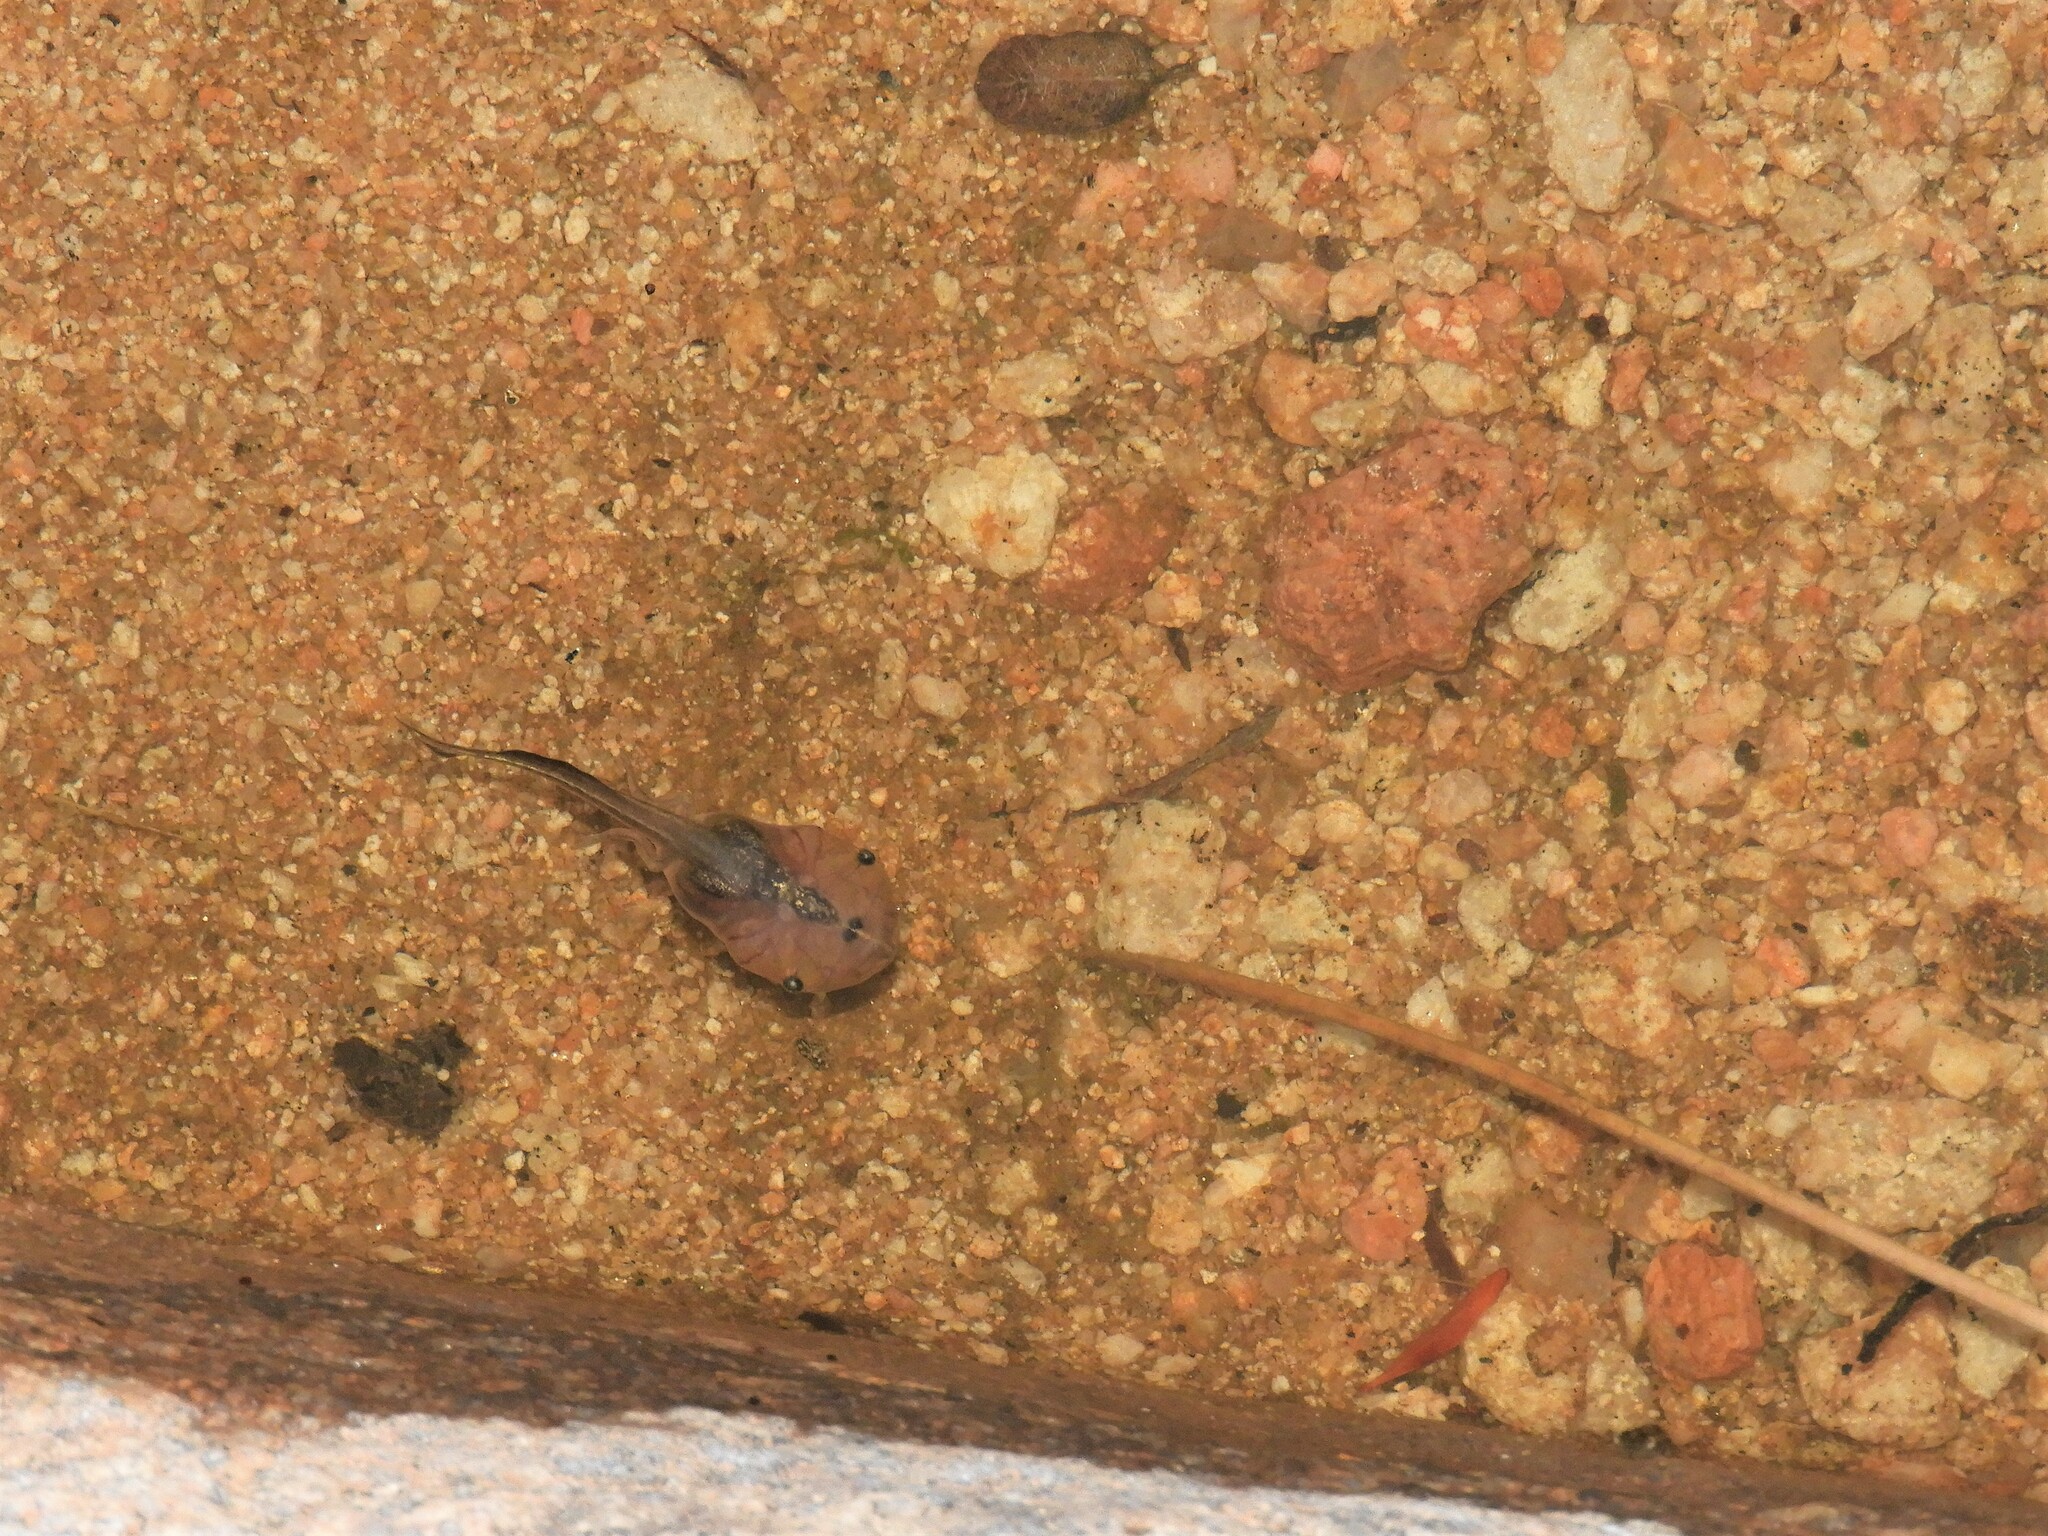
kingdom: Animalia
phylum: Chordata
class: Amphibia
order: Anura
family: Microhylidae
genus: Phrynomantis
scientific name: Phrynomantis annectens
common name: Marbled rubber frog
